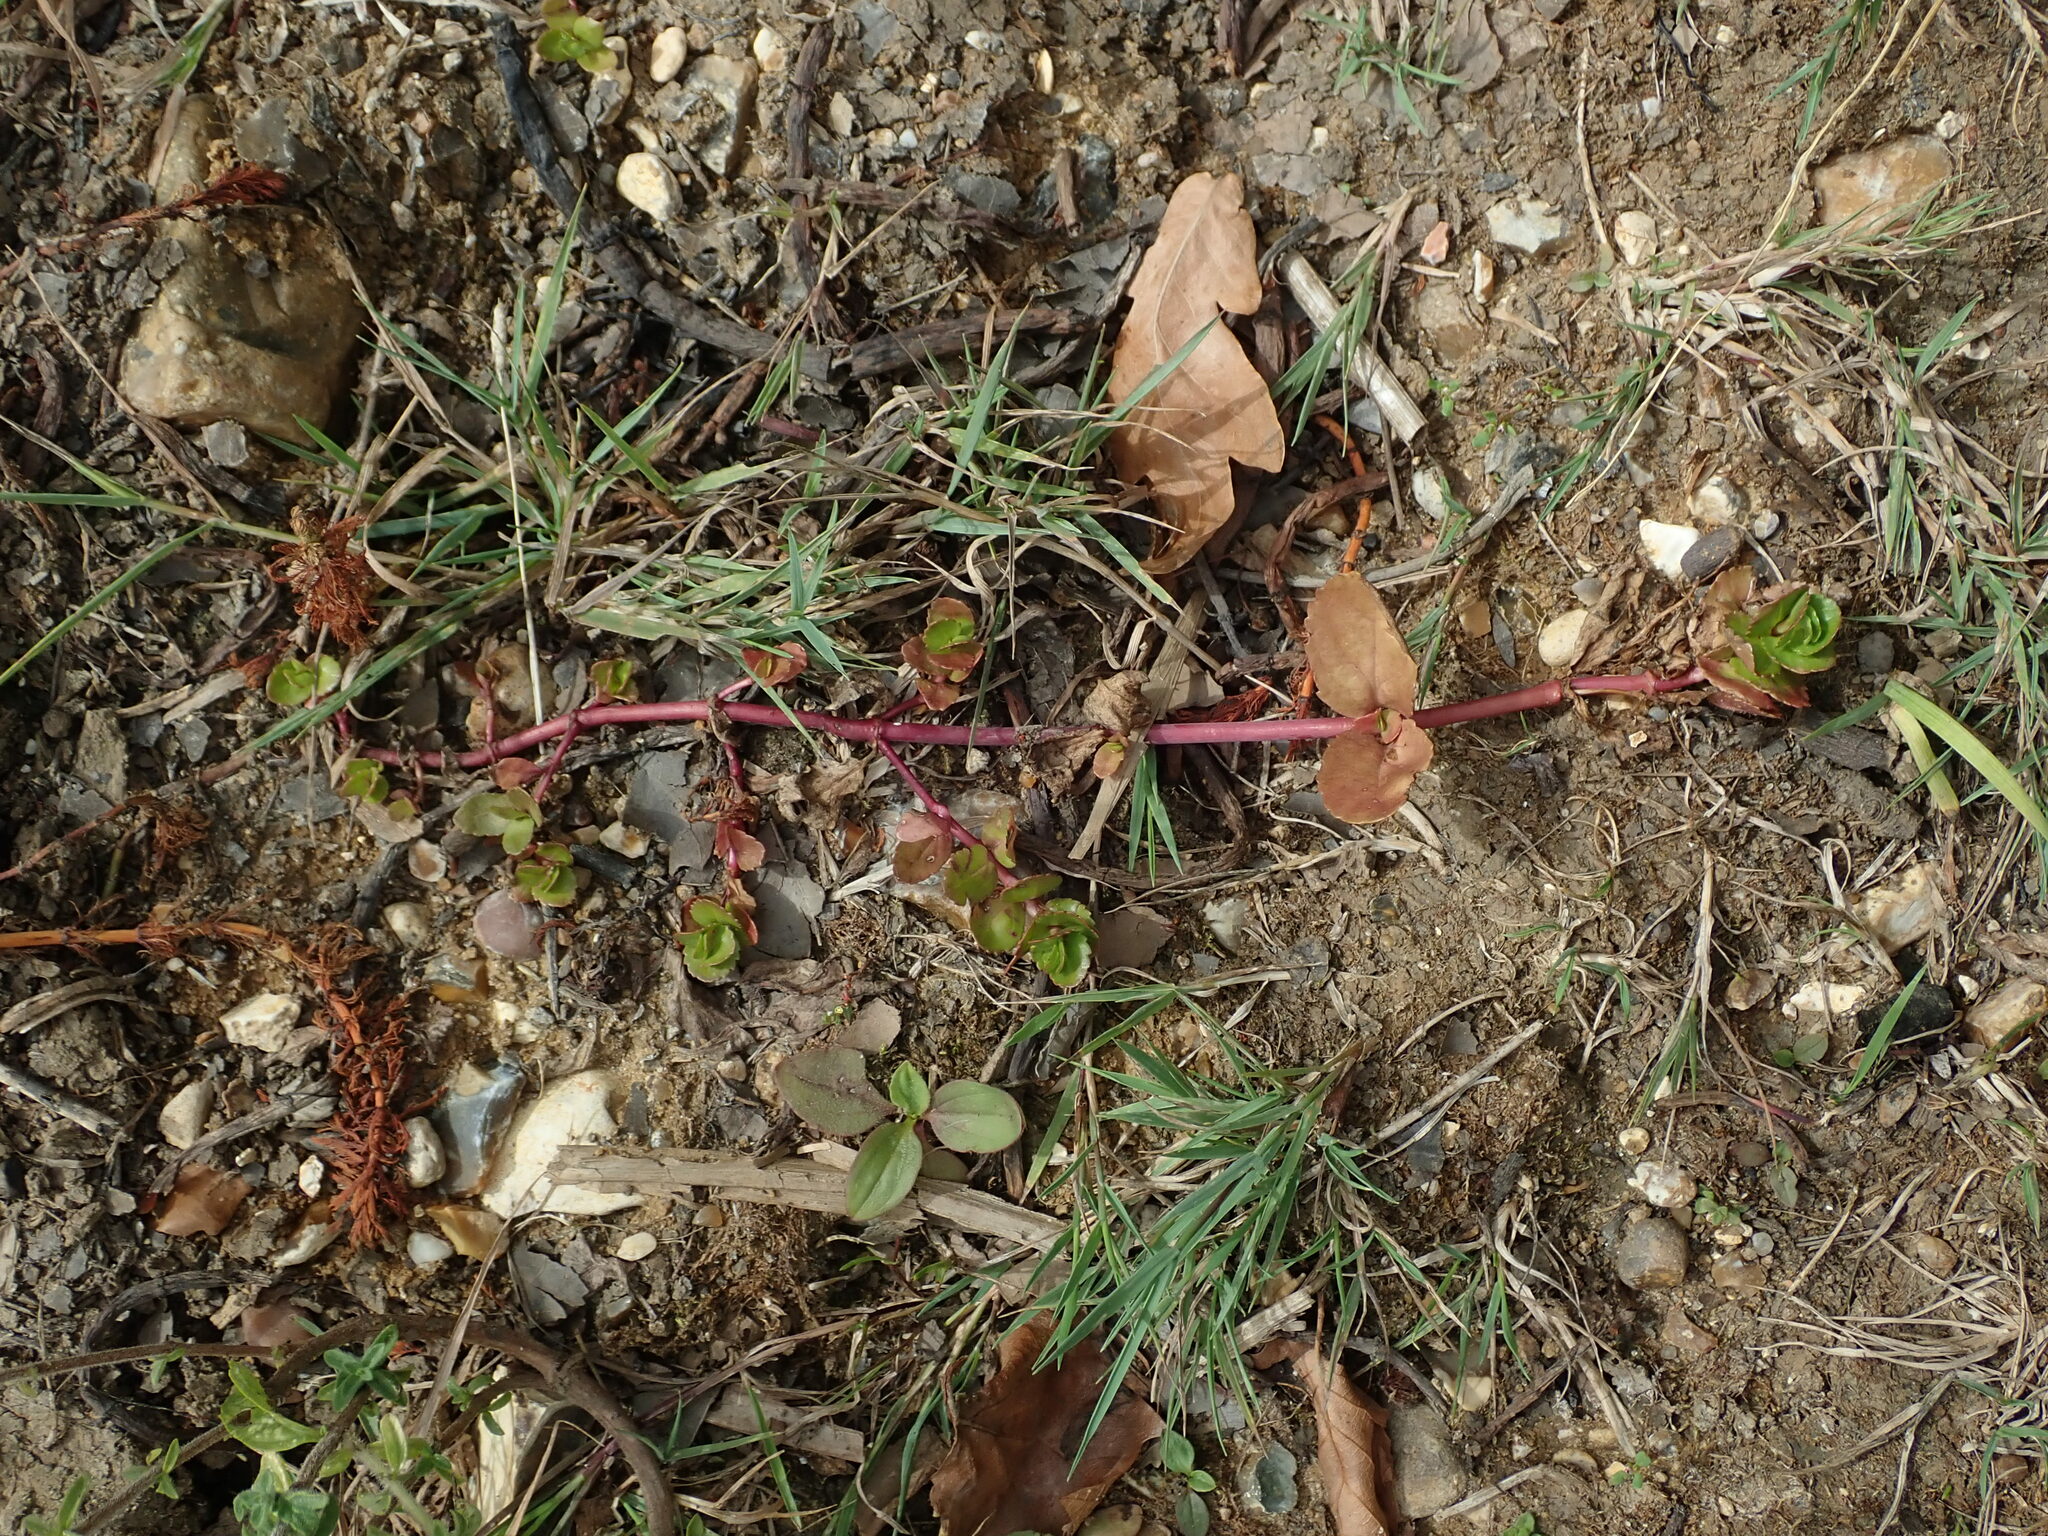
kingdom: Plantae
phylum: Tracheophyta
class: Magnoliopsida
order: Saxifragales
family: Crassulaceae
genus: Phedimus
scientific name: Phedimus spurius
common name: Caucasian stonecrop
